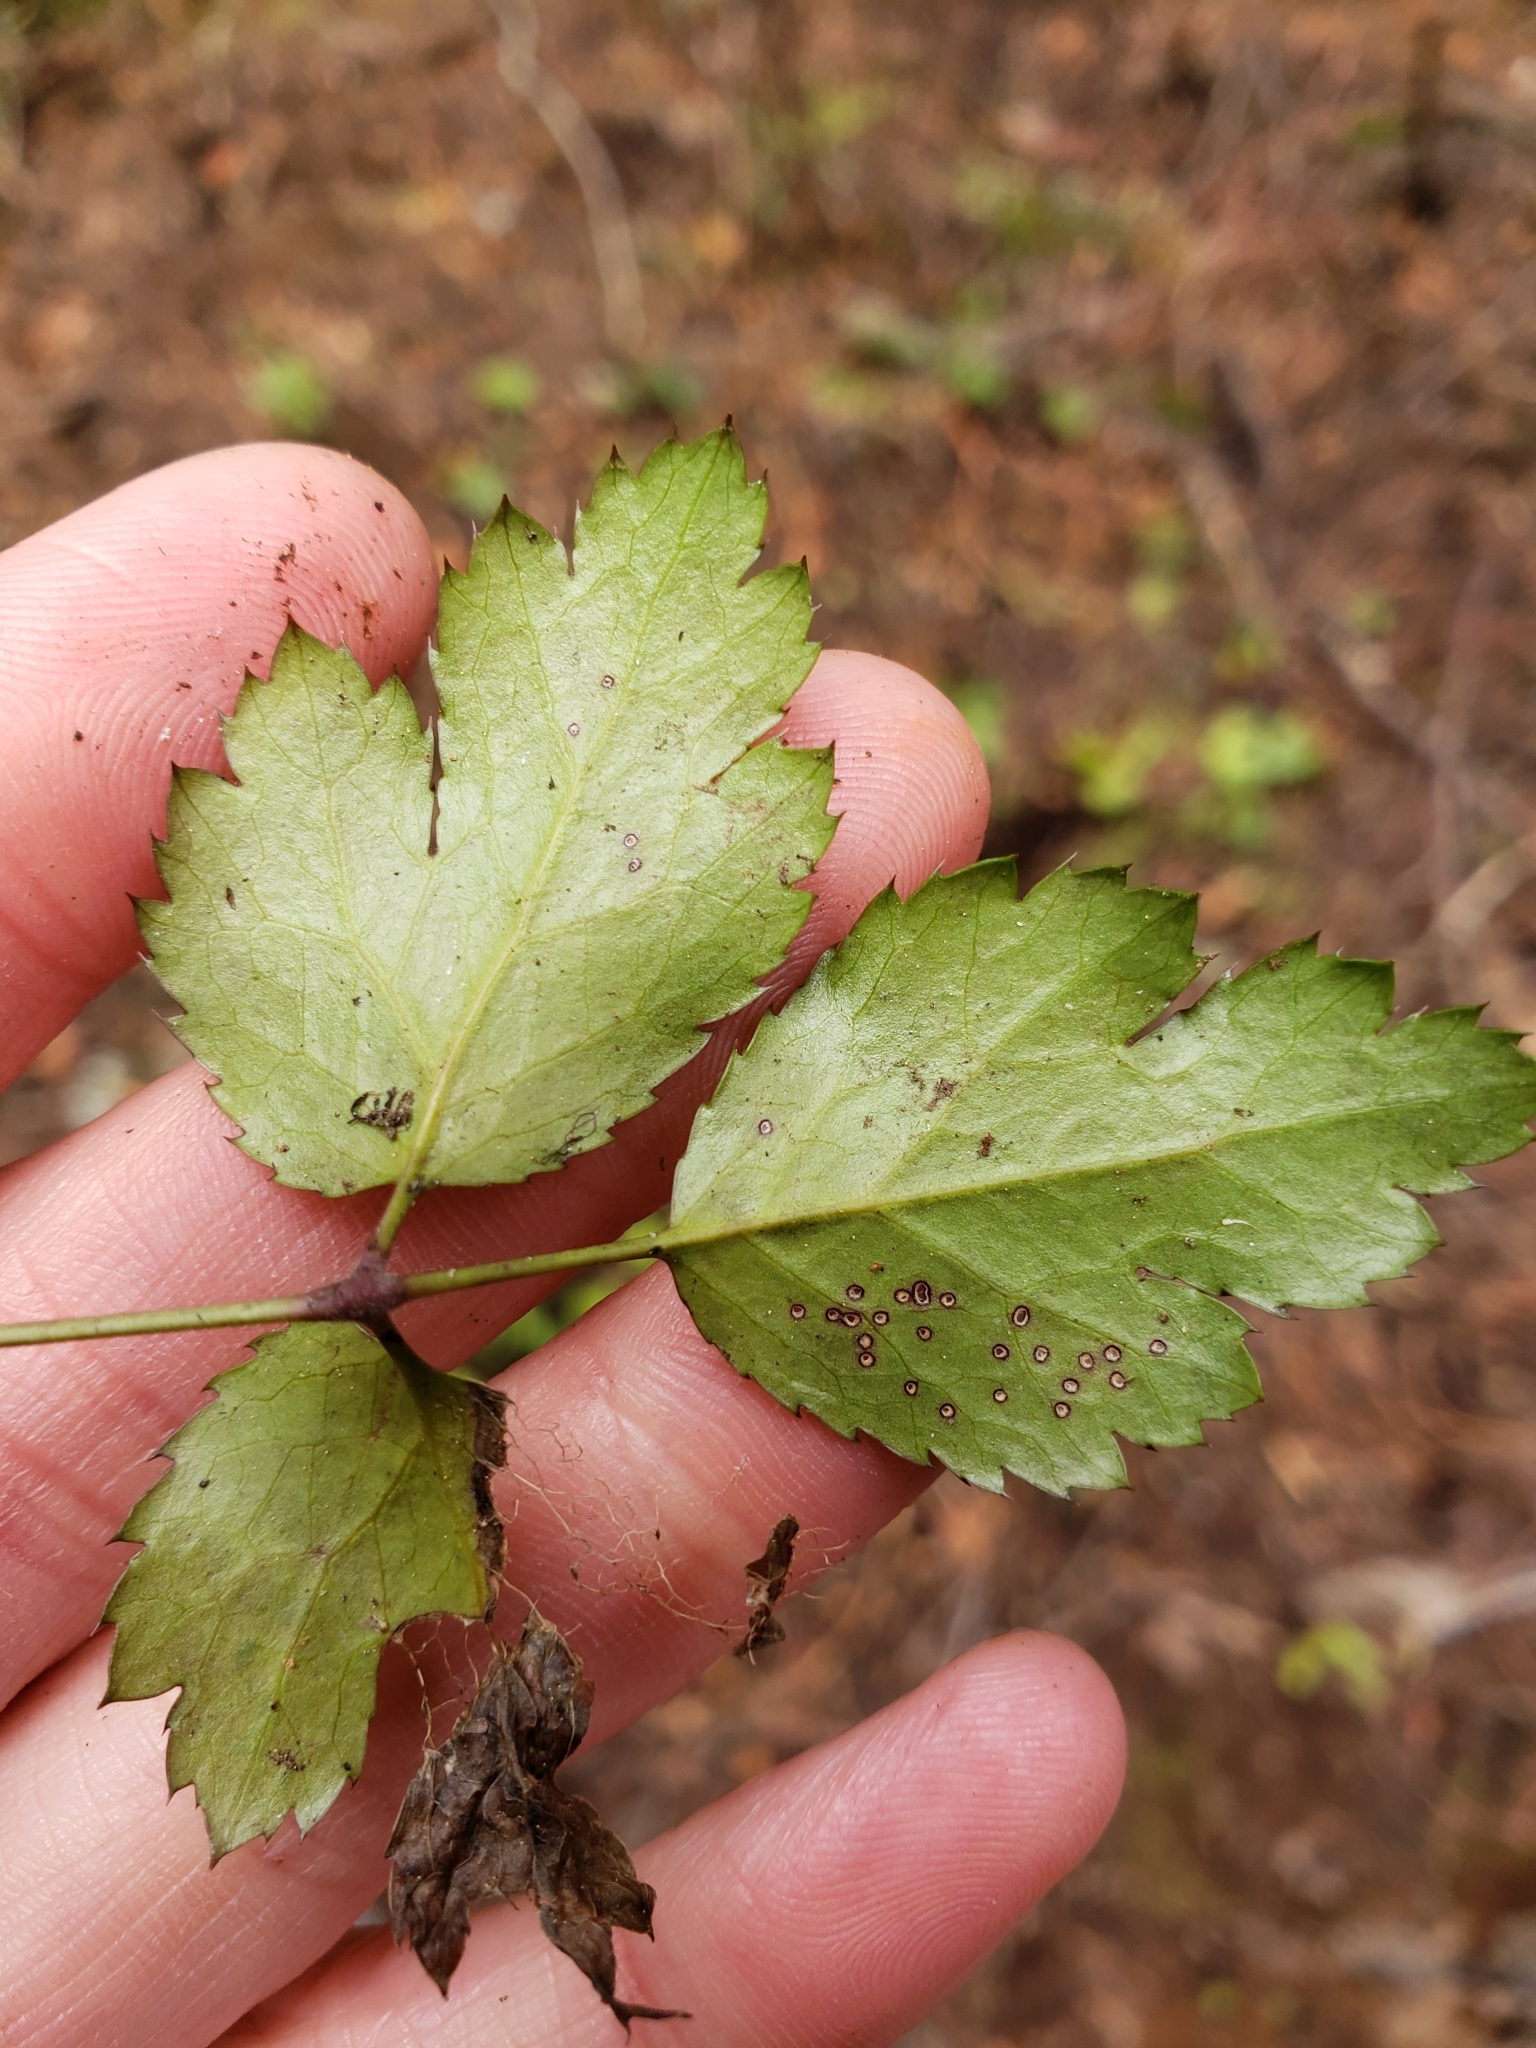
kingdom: Plantae
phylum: Tracheophyta
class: Magnoliopsida
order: Ranunculales
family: Ranunculaceae
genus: Coptis
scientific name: Coptis occidentalis
